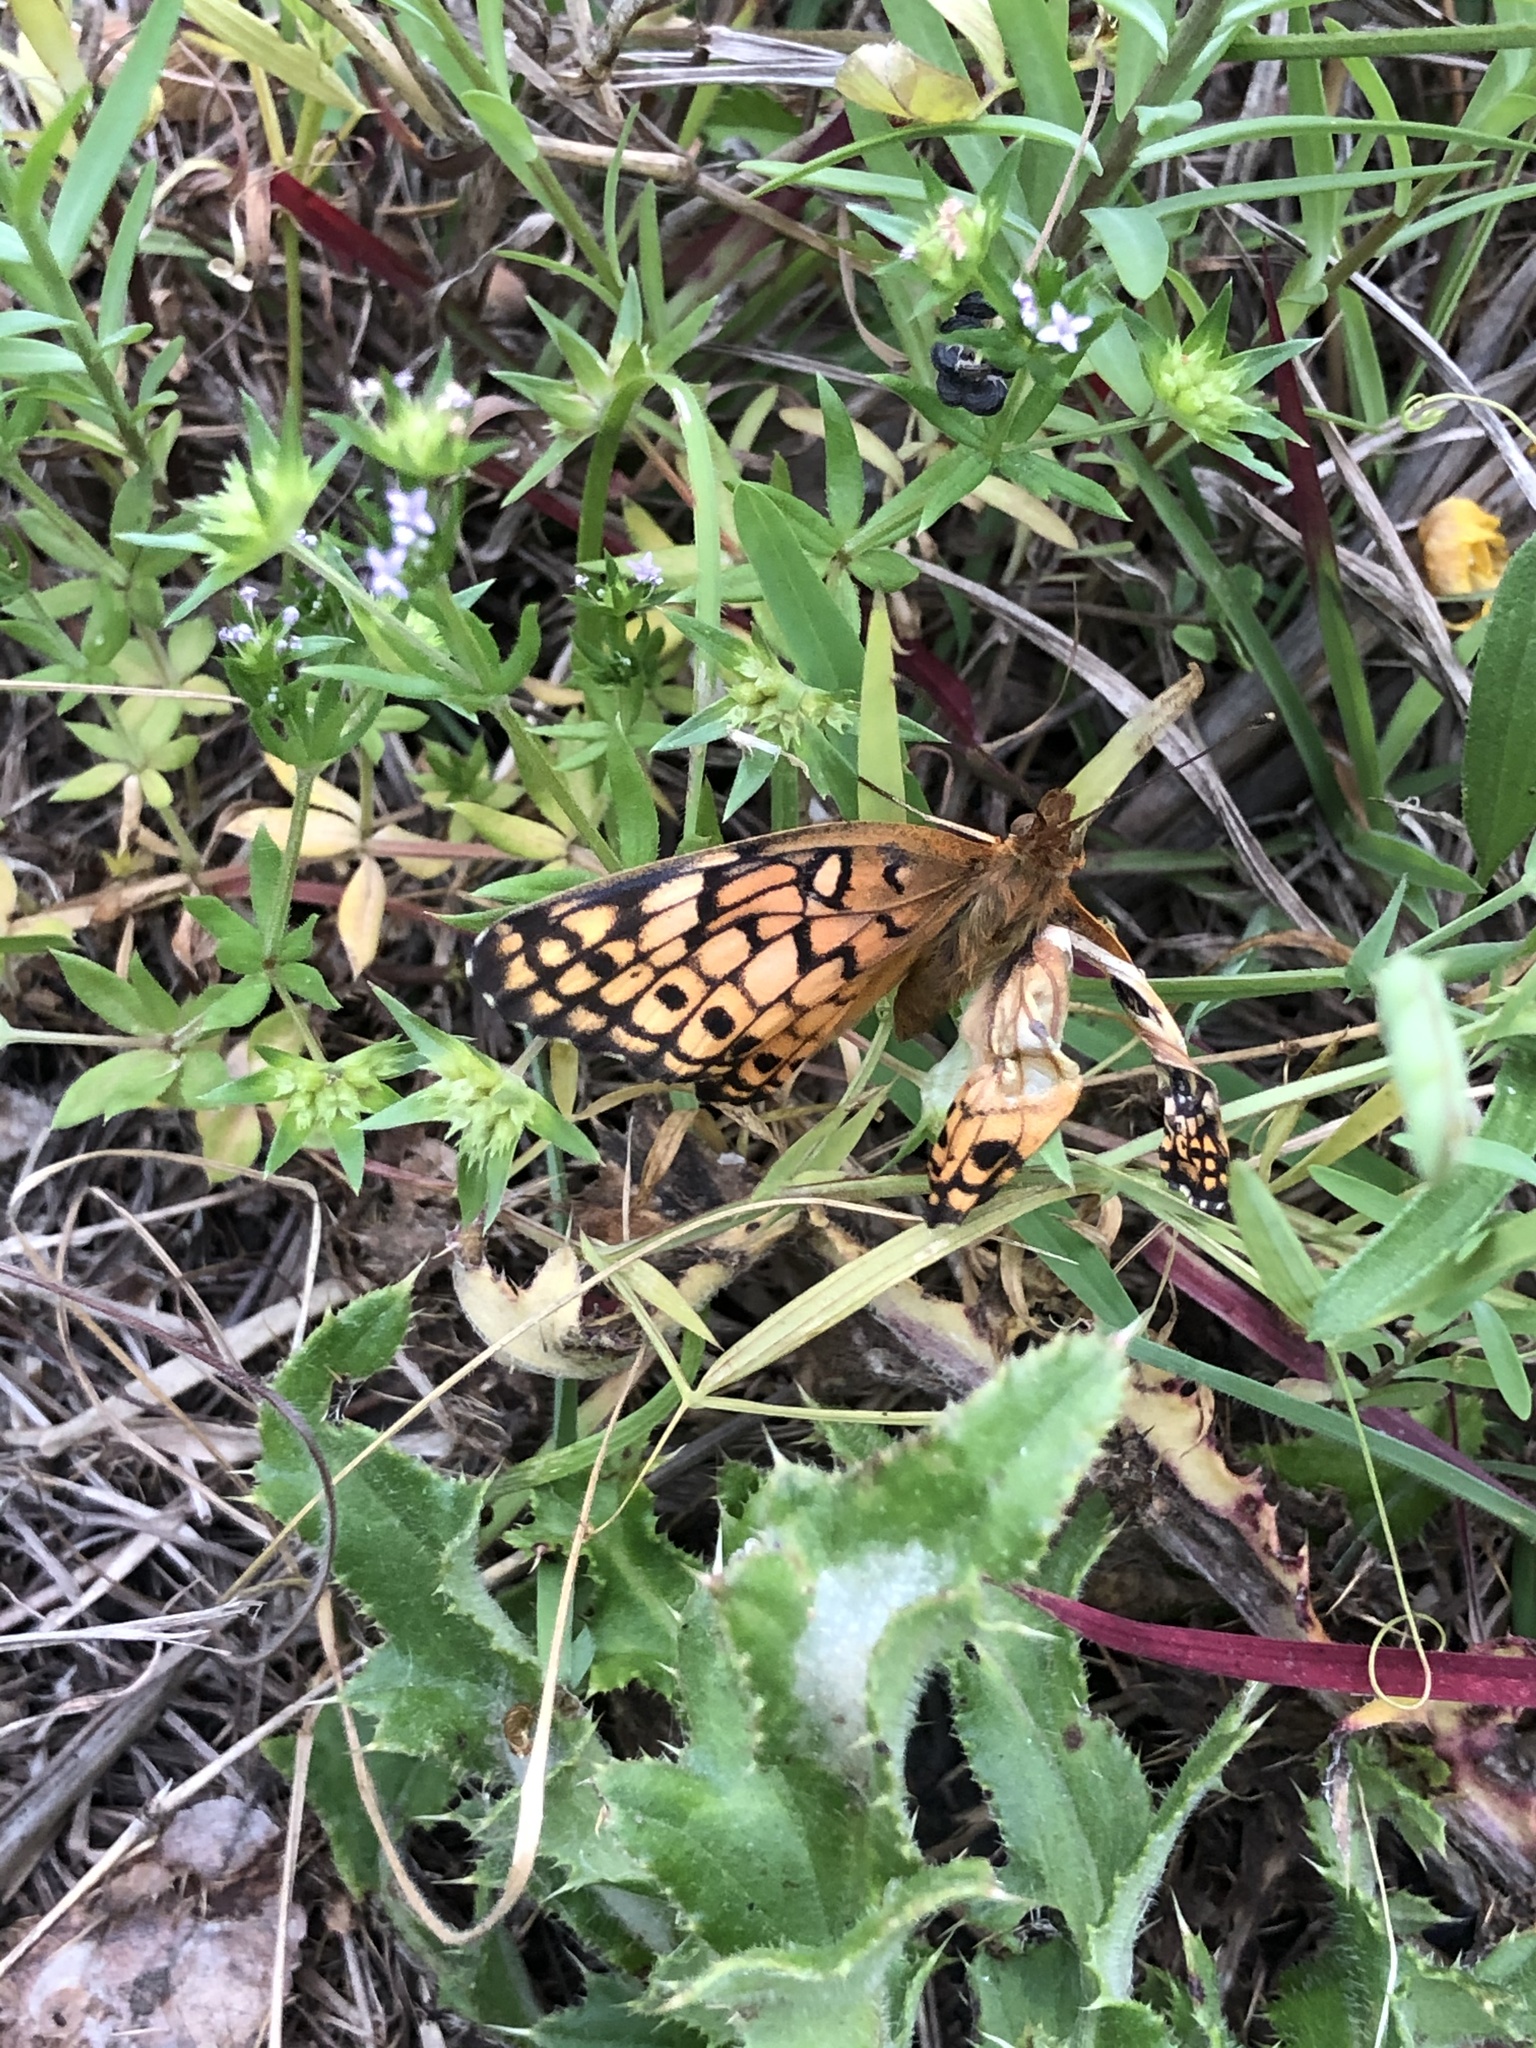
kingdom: Animalia
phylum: Arthropoda
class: Insecta
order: Lepidoptera
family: Nymphalidae
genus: Euptoieta
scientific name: Euptoieta claudia
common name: Variegated fritillary
